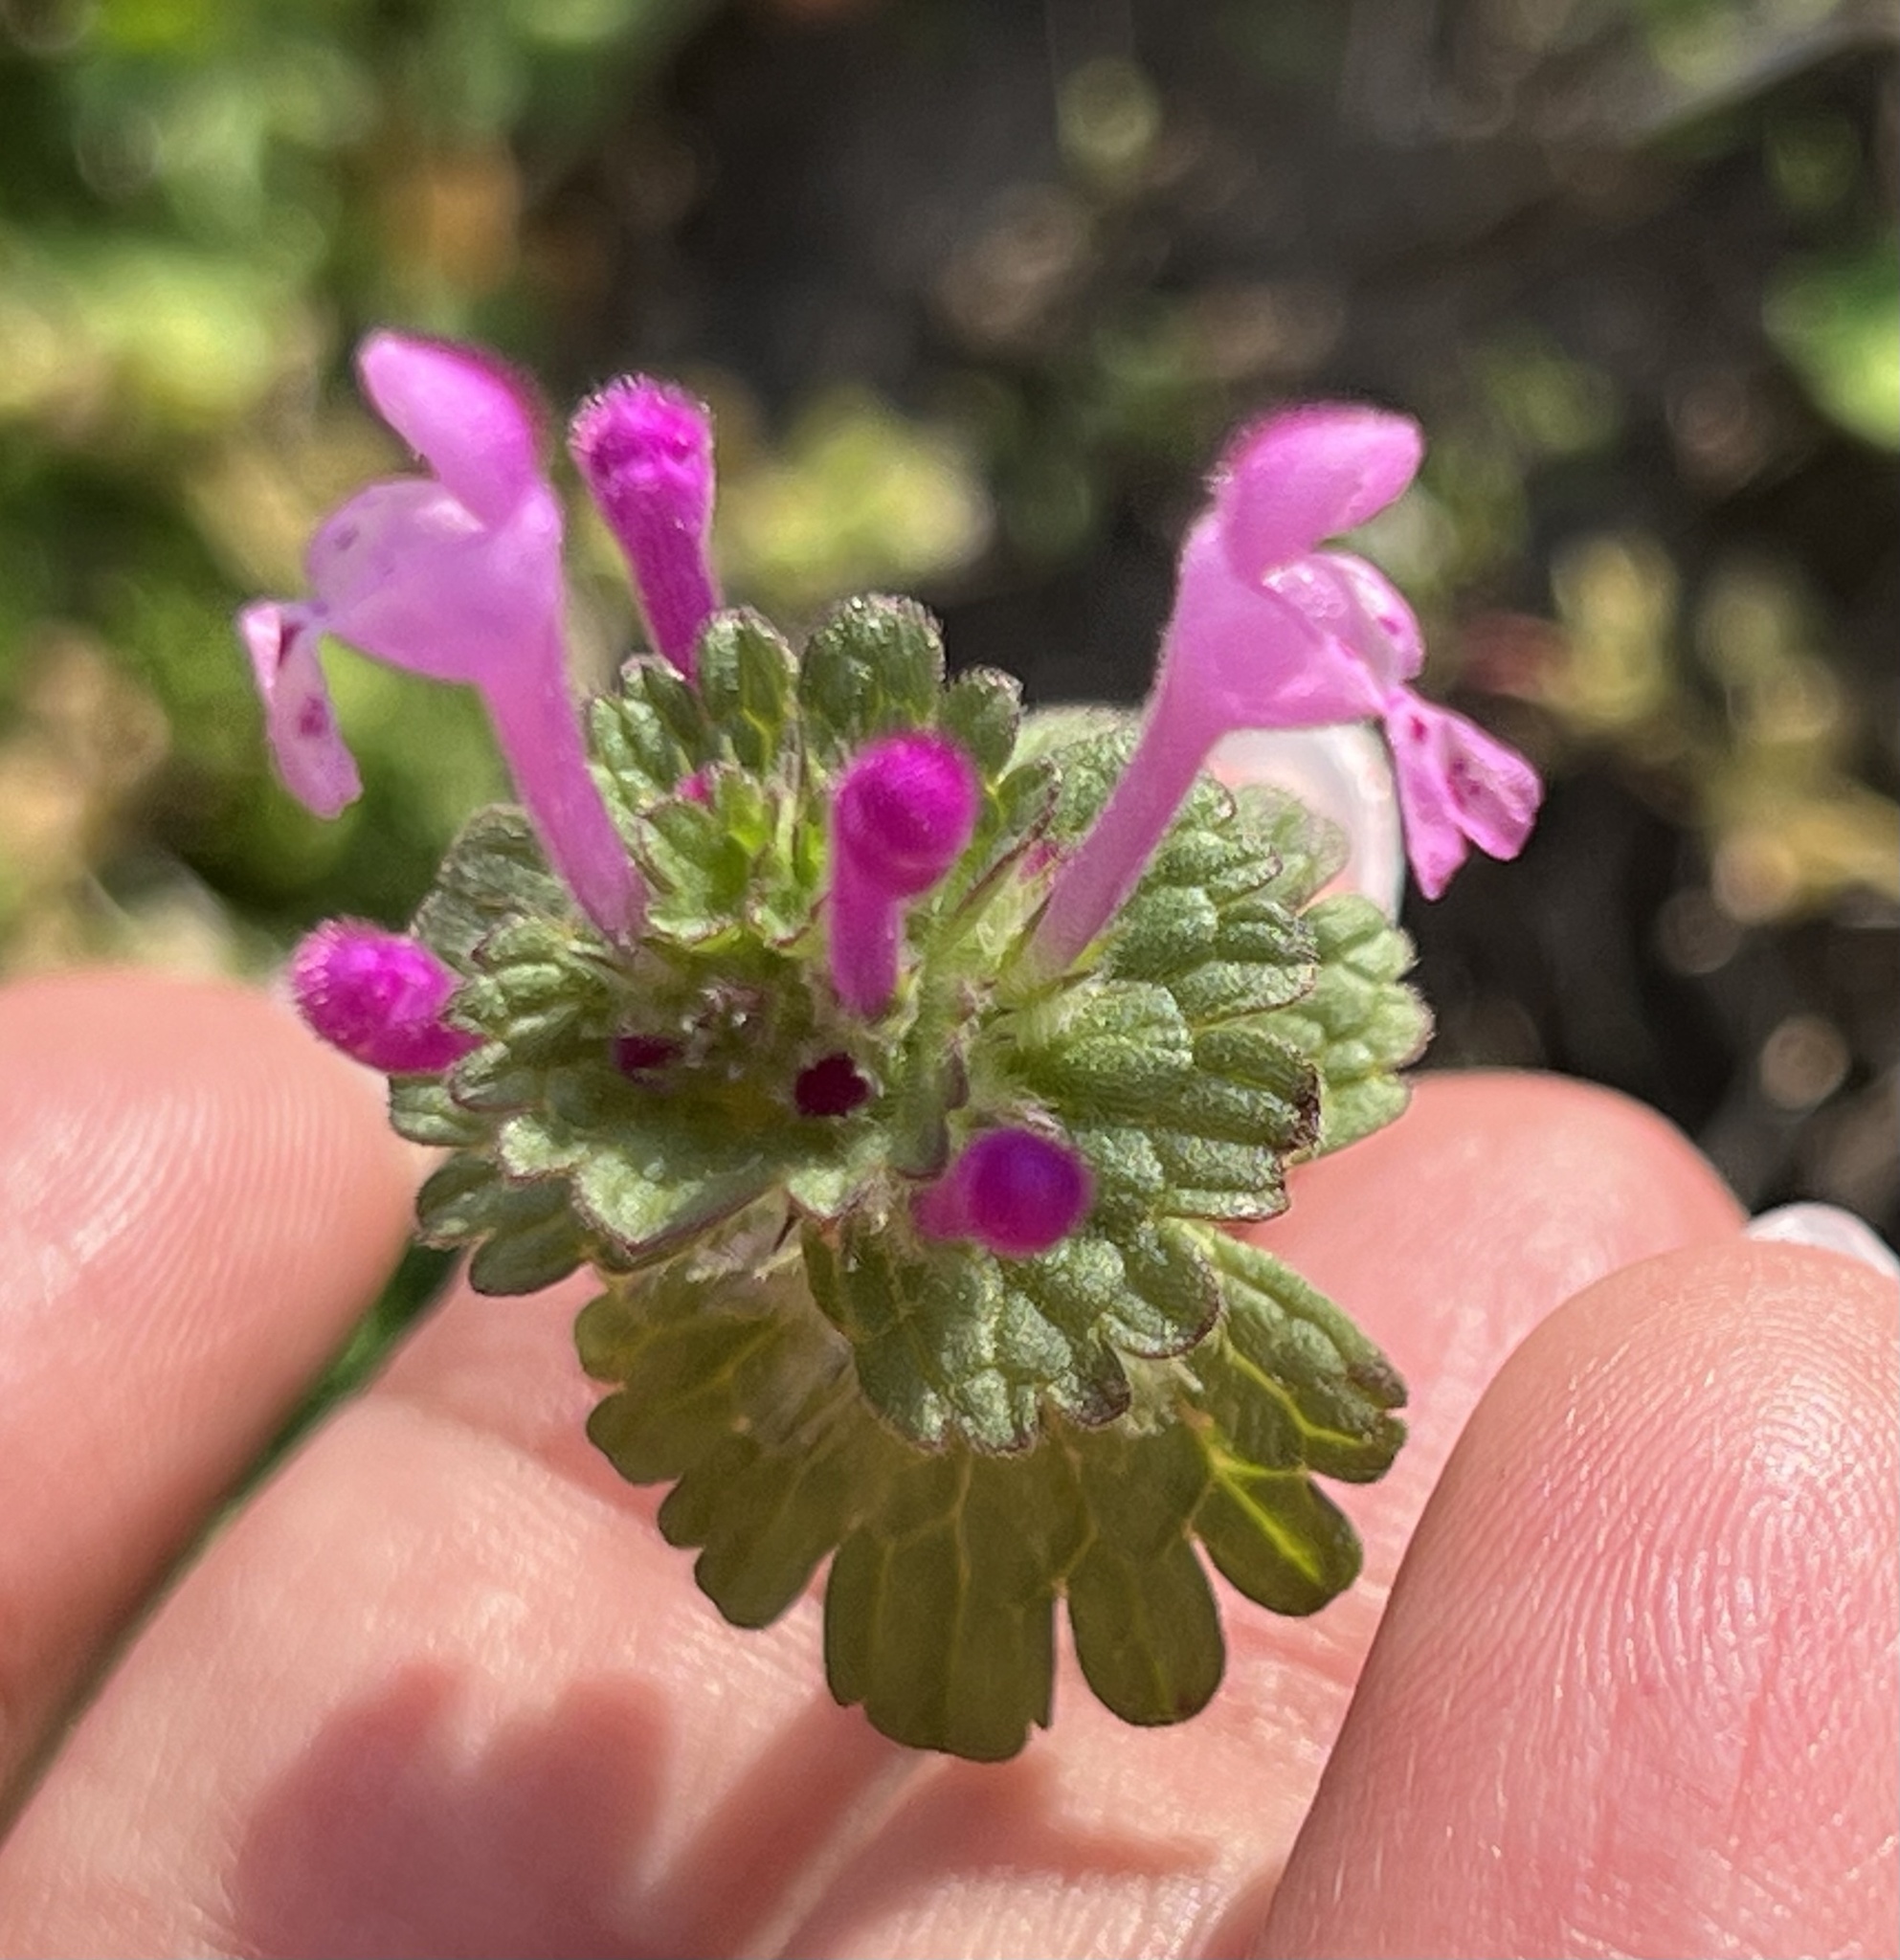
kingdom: Plantae
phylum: Tracheophyta
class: Magnoliopsida
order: Lamiales
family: Lamiaceae
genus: Lamium
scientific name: Lamium amplexicaule
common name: Henbit dead-nettle
